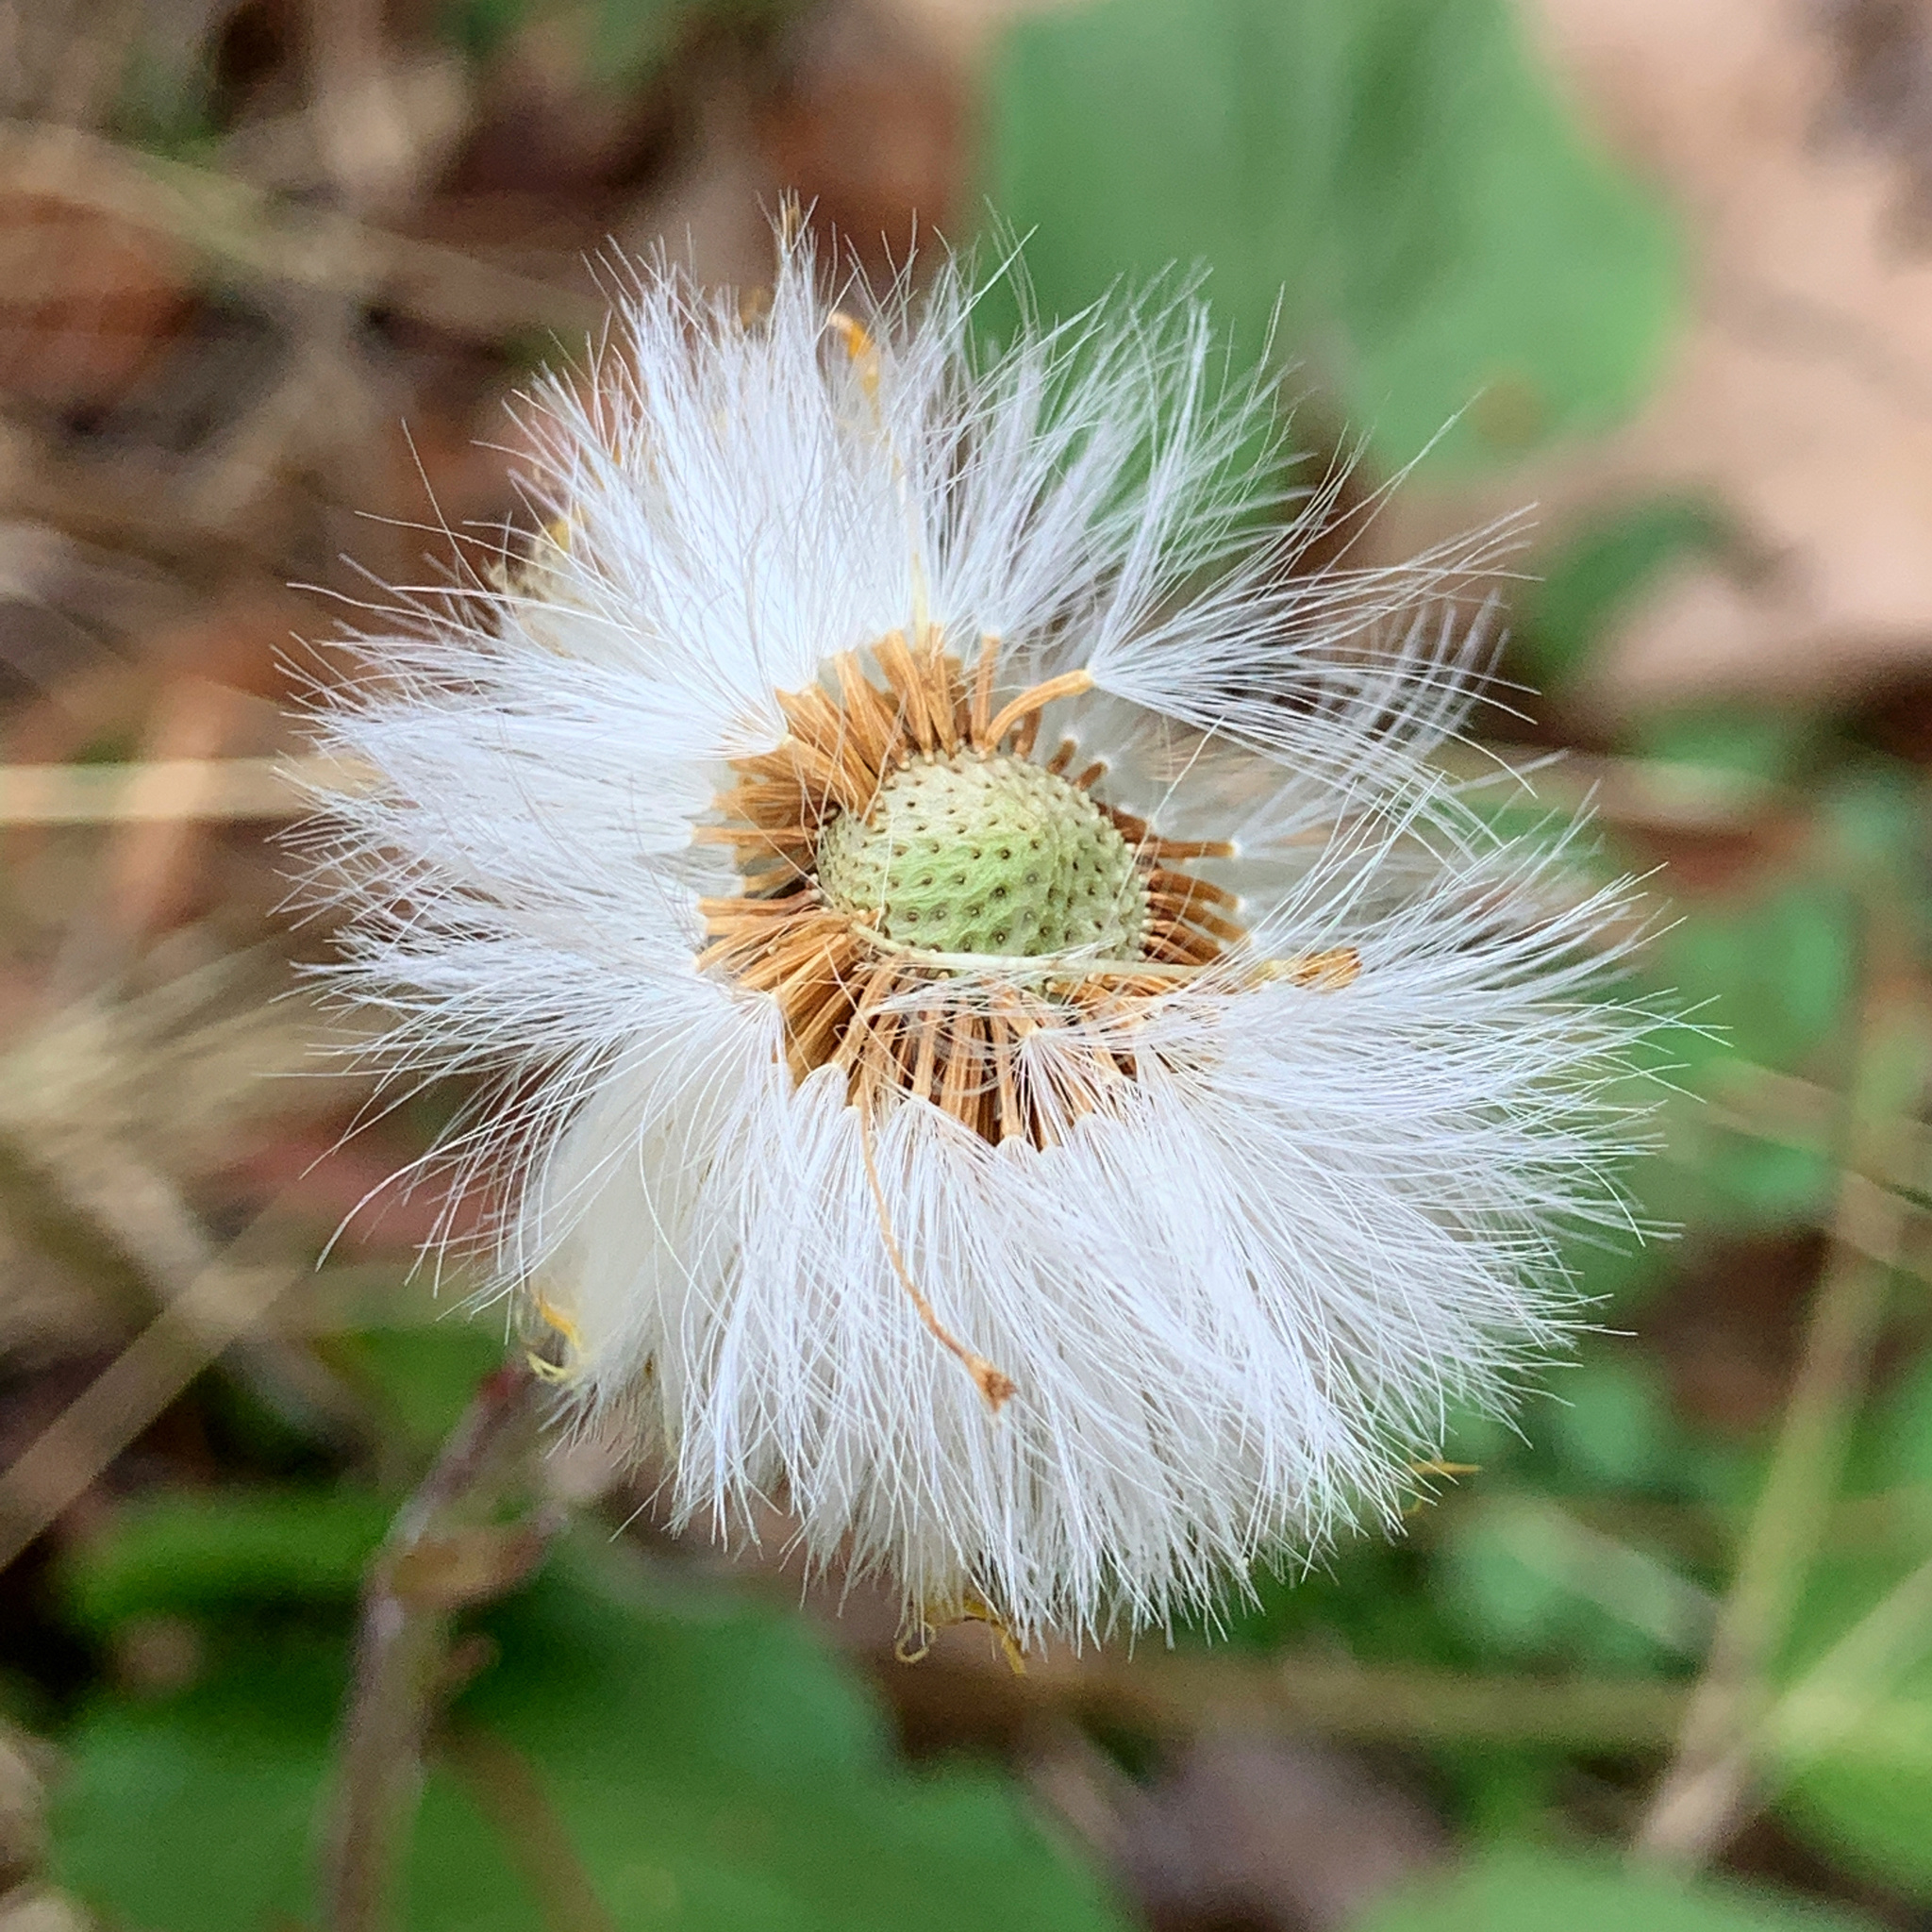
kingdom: Plantae
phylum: Tracheophyta
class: Magnoliopsida
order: Asterales
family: Asteraceae
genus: Tussilago
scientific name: Tussilago farfara
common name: Coltsfoot
